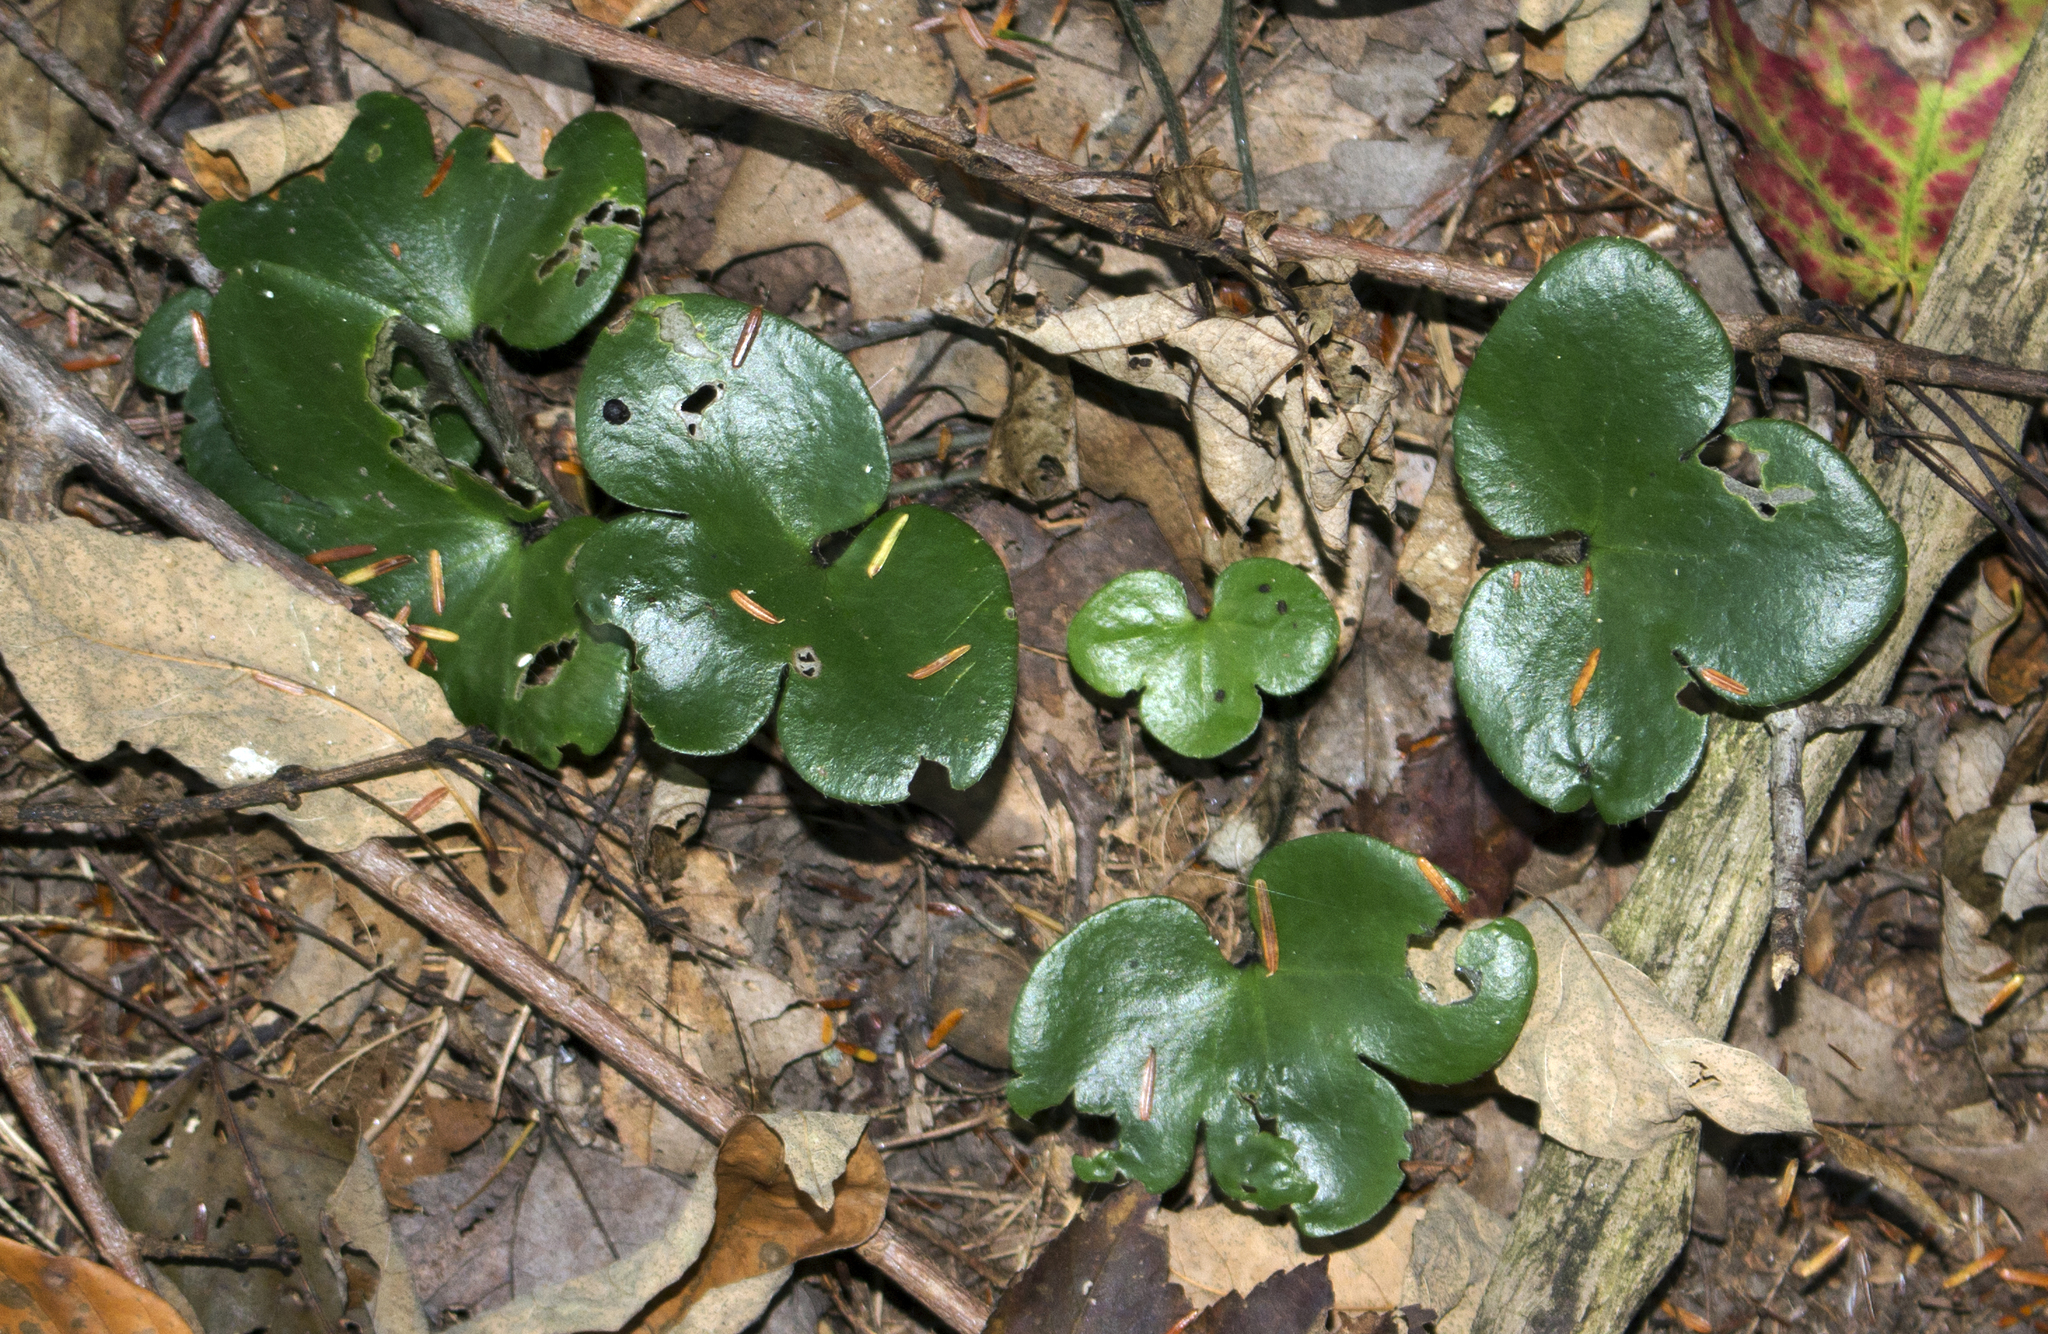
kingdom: Plantae
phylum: Tracheophyta
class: Magnoliopsida
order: Ranunculales
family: Ranunculaceae
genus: Hepatica
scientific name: Hepatica americana
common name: American hepatica
